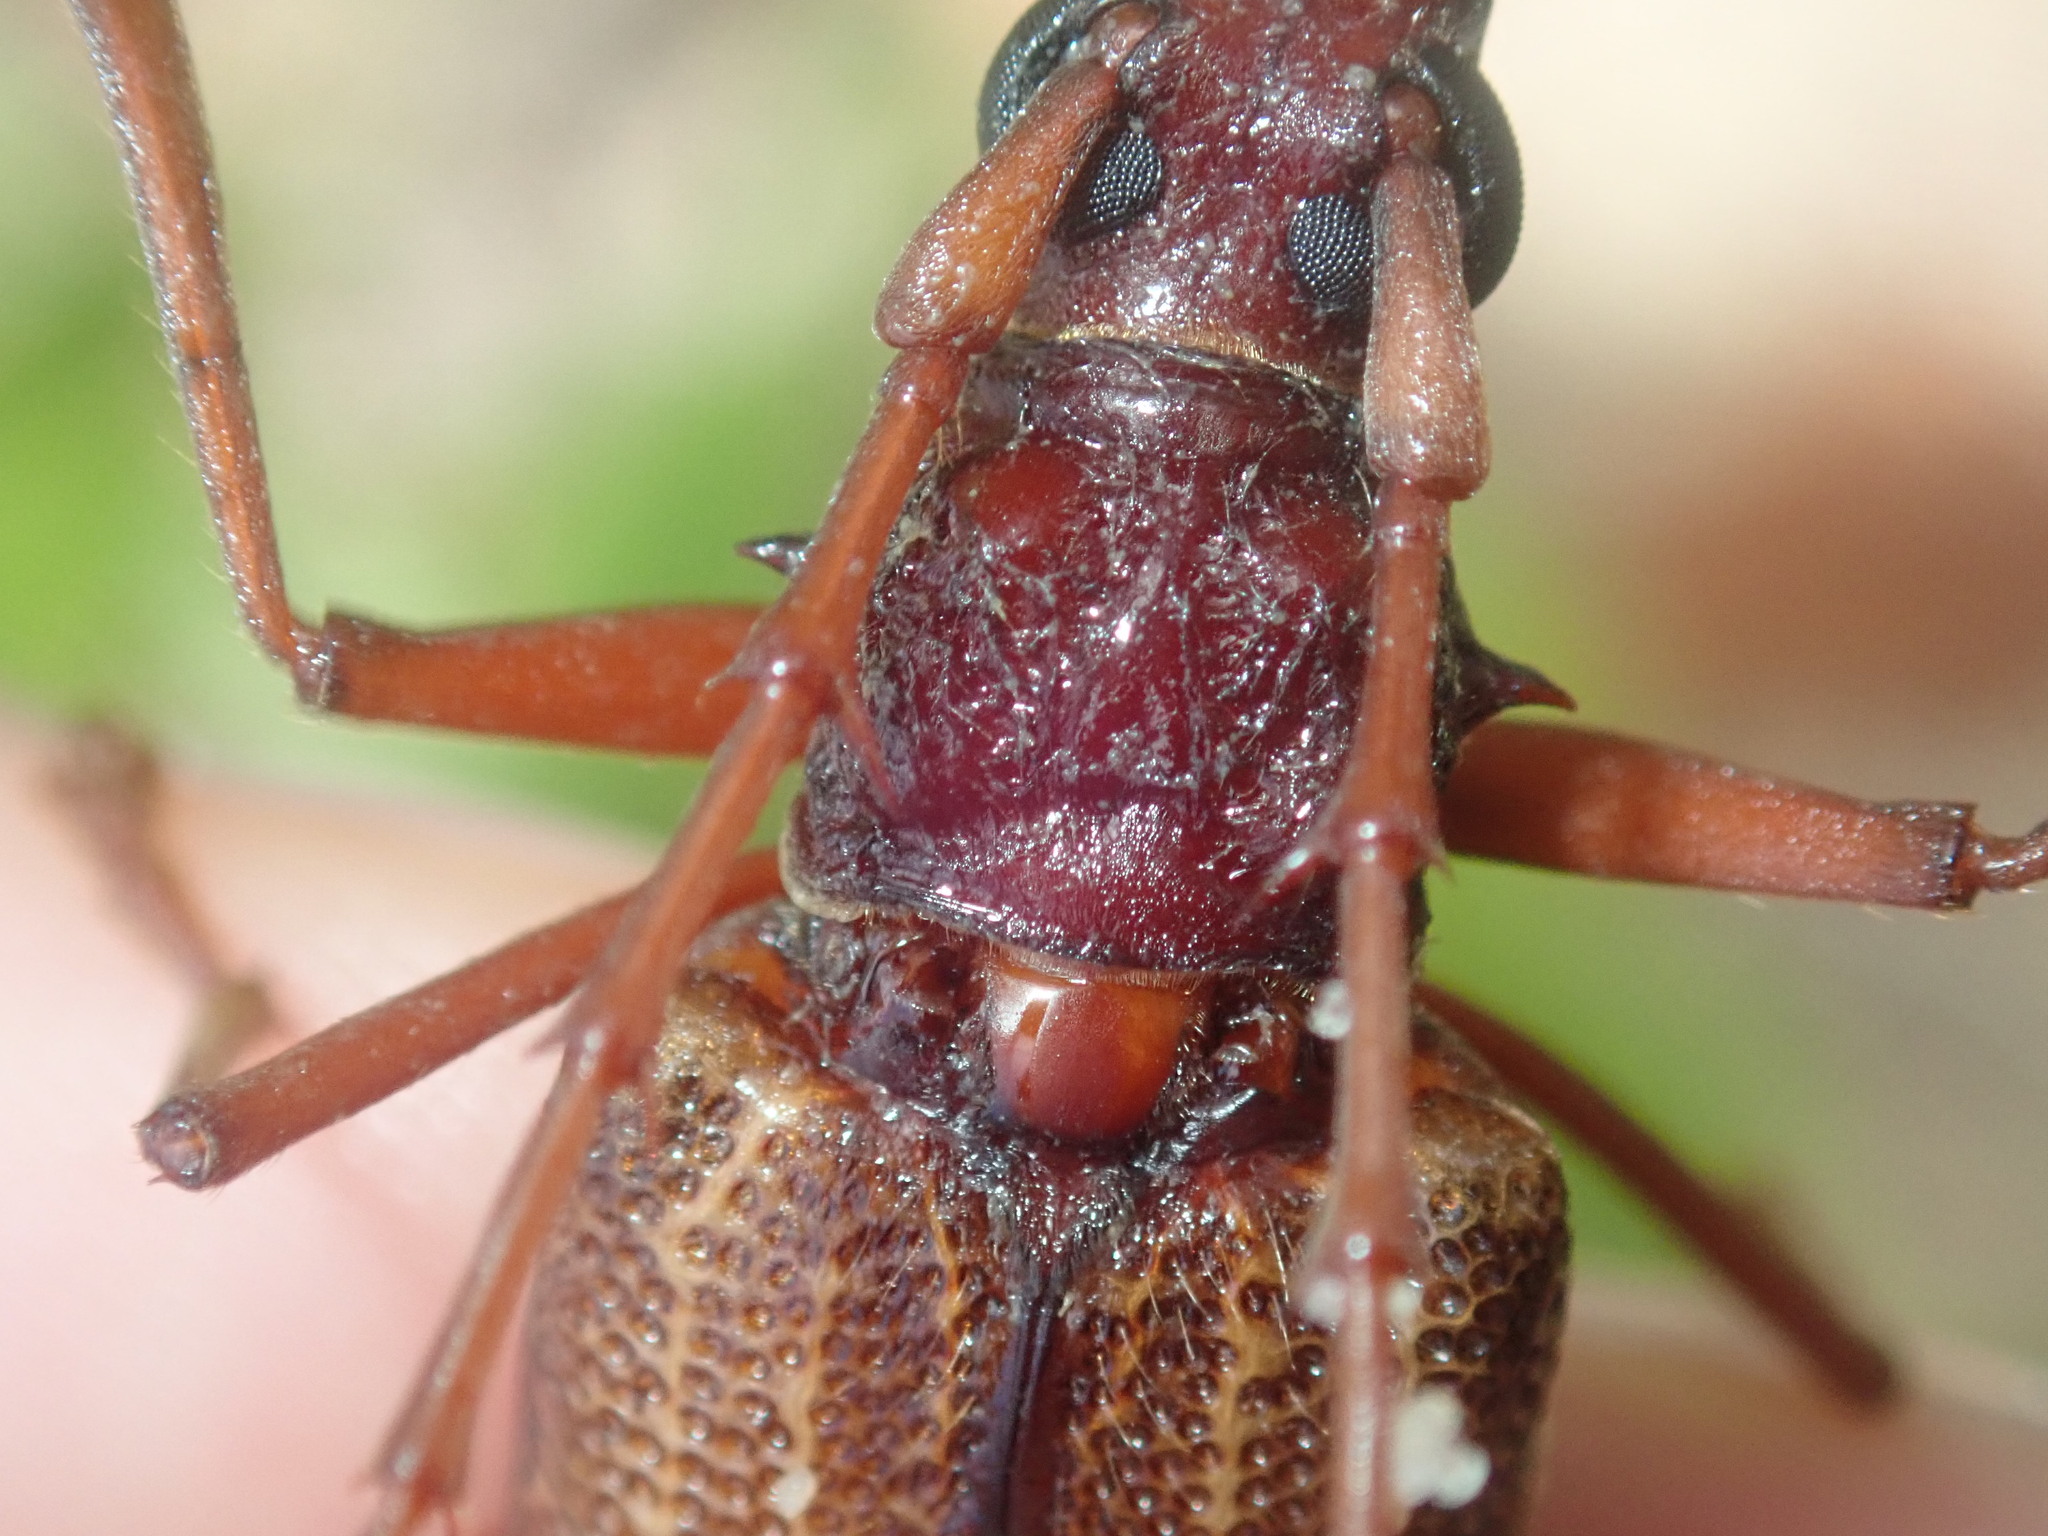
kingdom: Animalia
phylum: Arthropoda
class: Insecta
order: Coleoptera
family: Cerambycidae
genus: Phoracantha
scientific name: Phoracantha acanthocera
